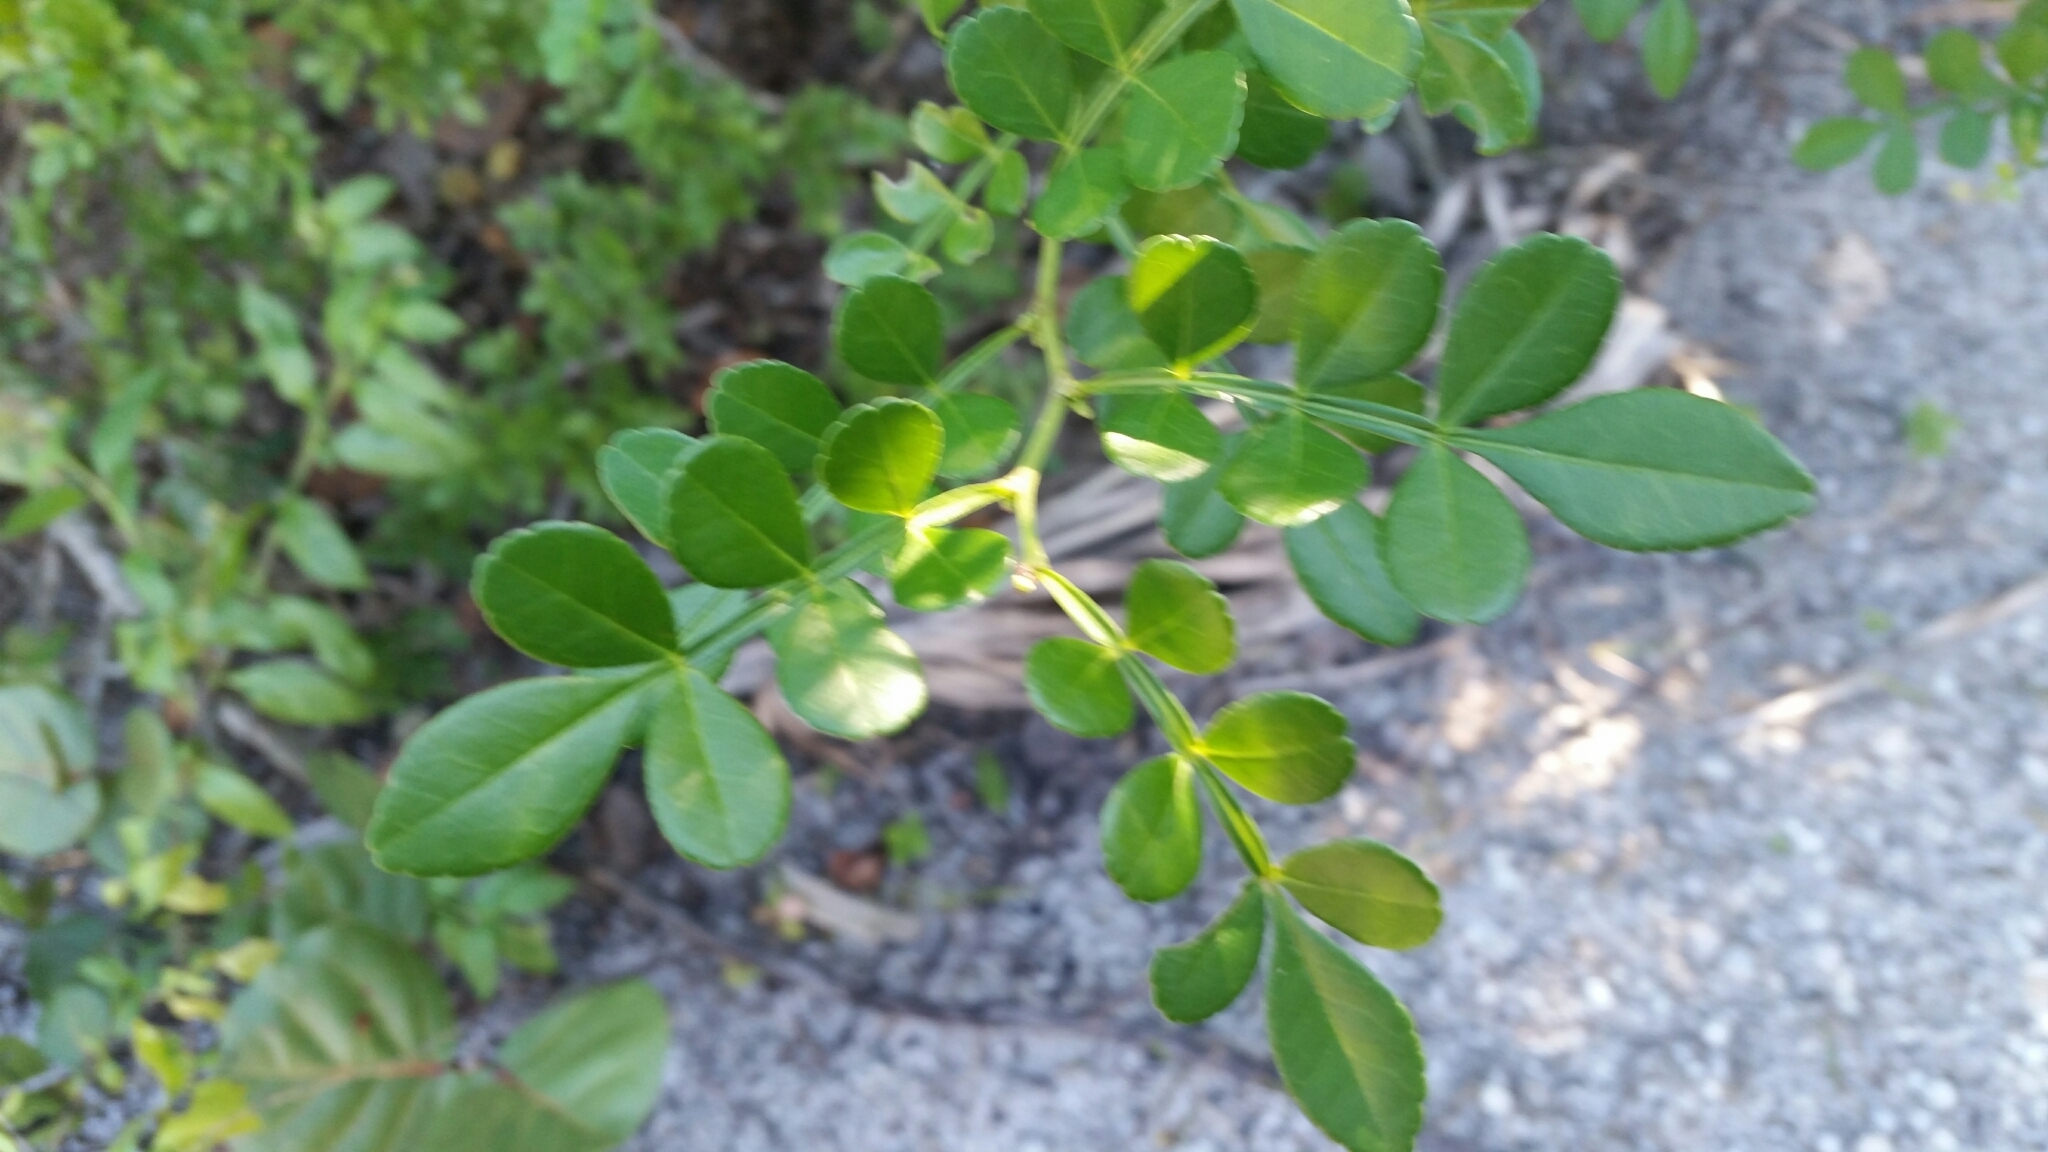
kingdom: Plantae
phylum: Tracheophyta
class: Magnoliopsida
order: Sapindales
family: Rutaceae
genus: Zanthoxylum
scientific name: Zanthoxylum fagara
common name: Lime prickly-ash
